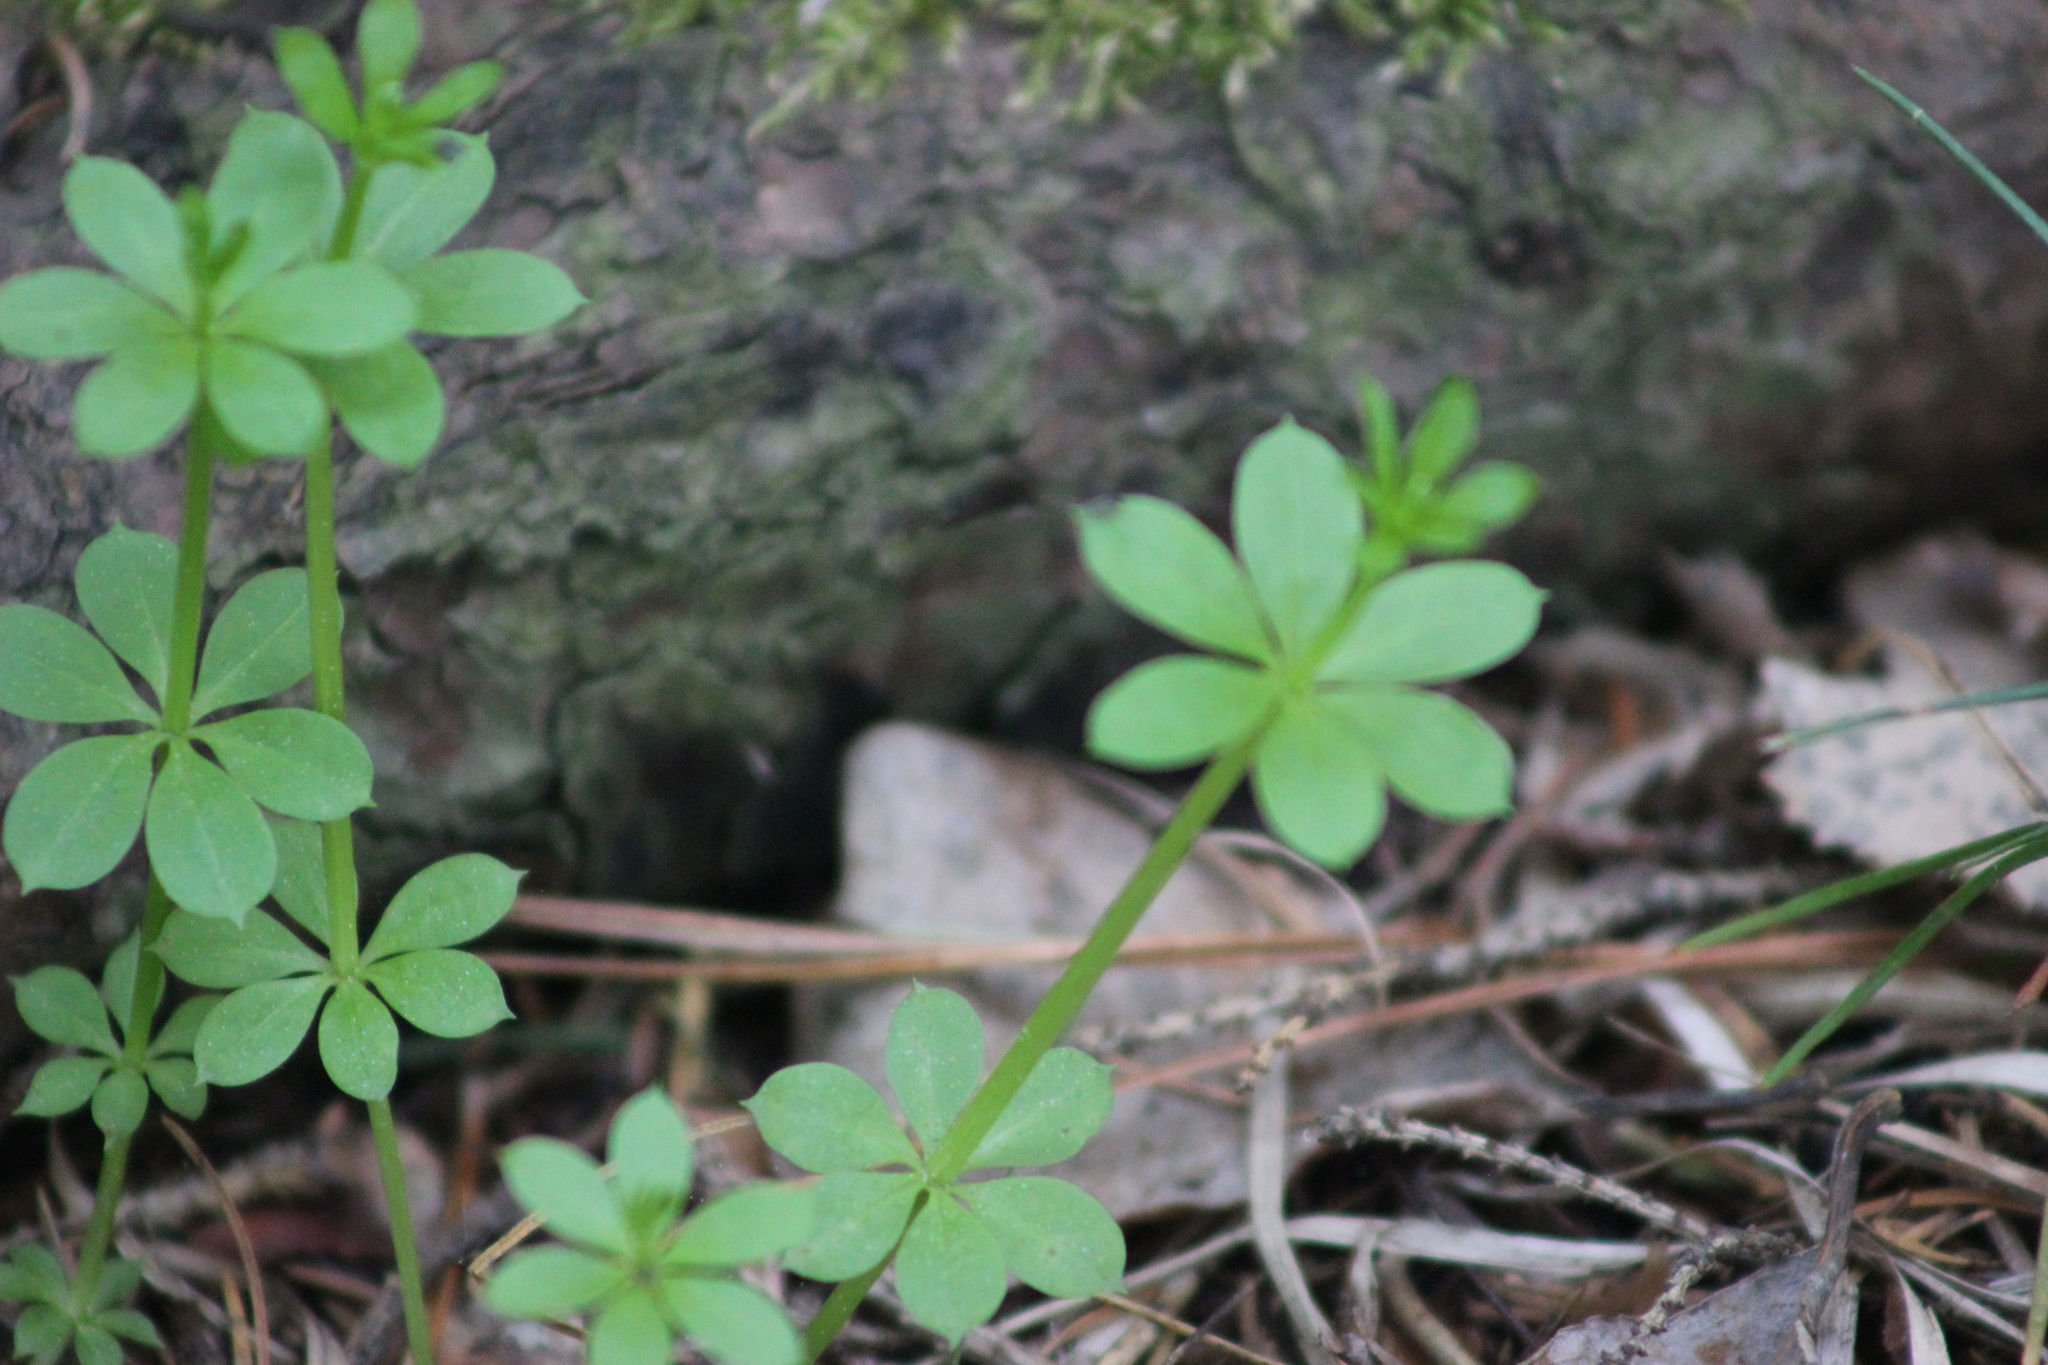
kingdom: Plantae
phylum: Tracheophyta
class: Magnoliopsida
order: Gentianales
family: Rubiaceae
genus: Galium
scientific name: Galium triflorum
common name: Fragrant bedstraw
